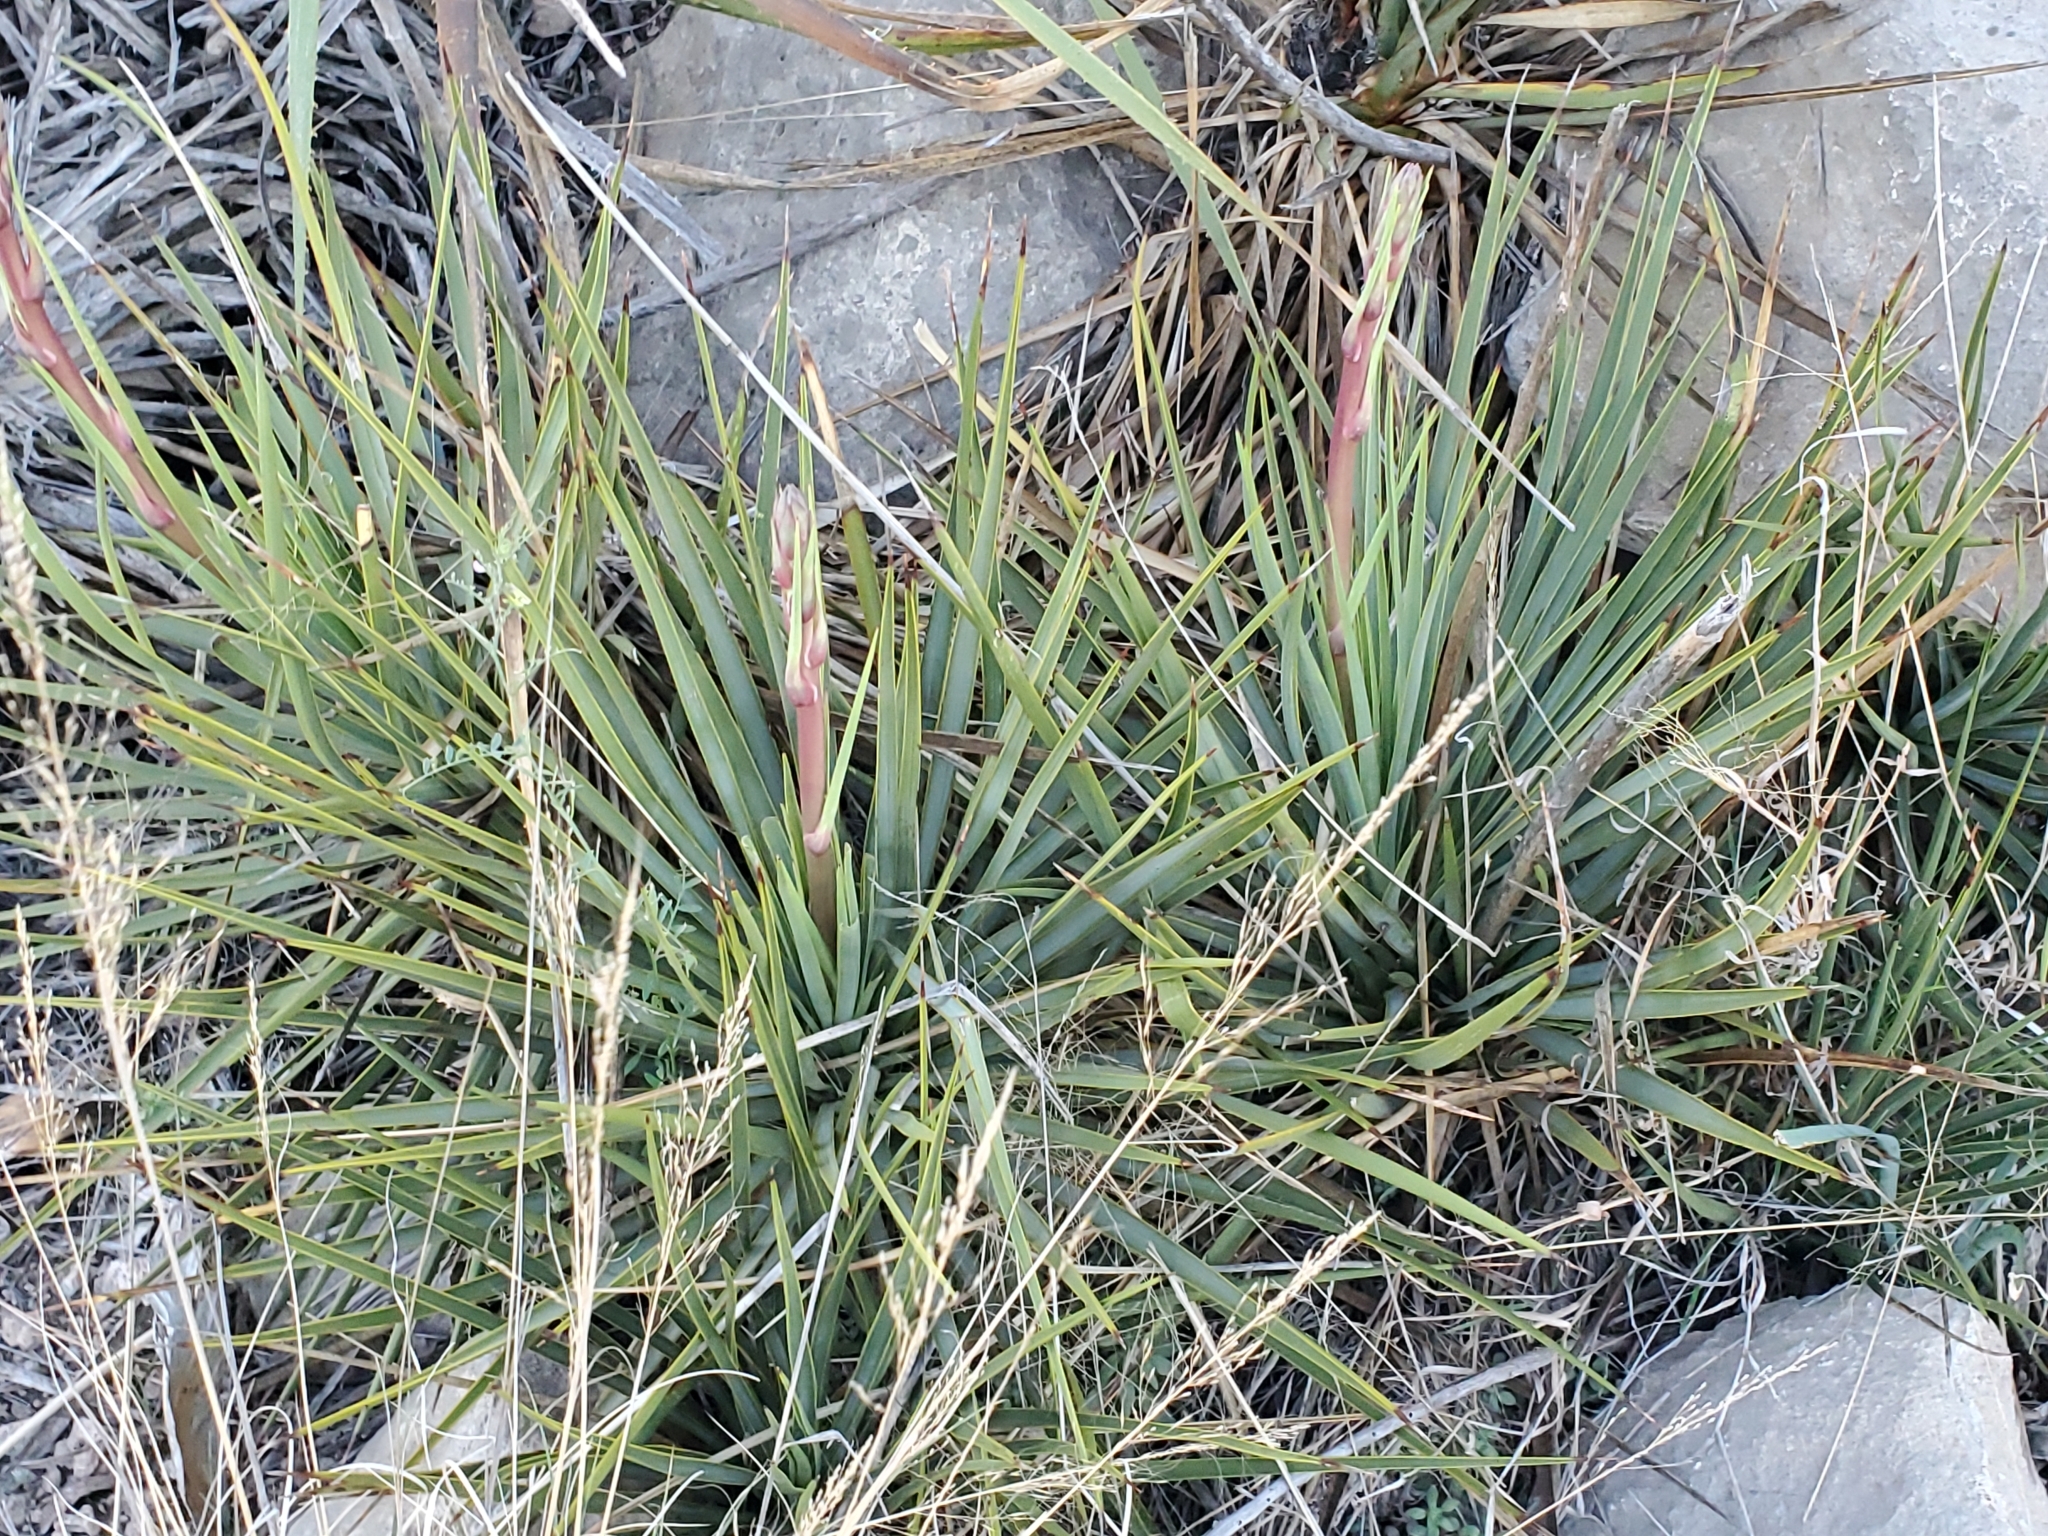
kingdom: Plantae
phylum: Tracheophyta
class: Liliopsida
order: Asparagales
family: Asparagaceae
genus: Yucca
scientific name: Yucca reverchonii
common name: San angelo yucca
